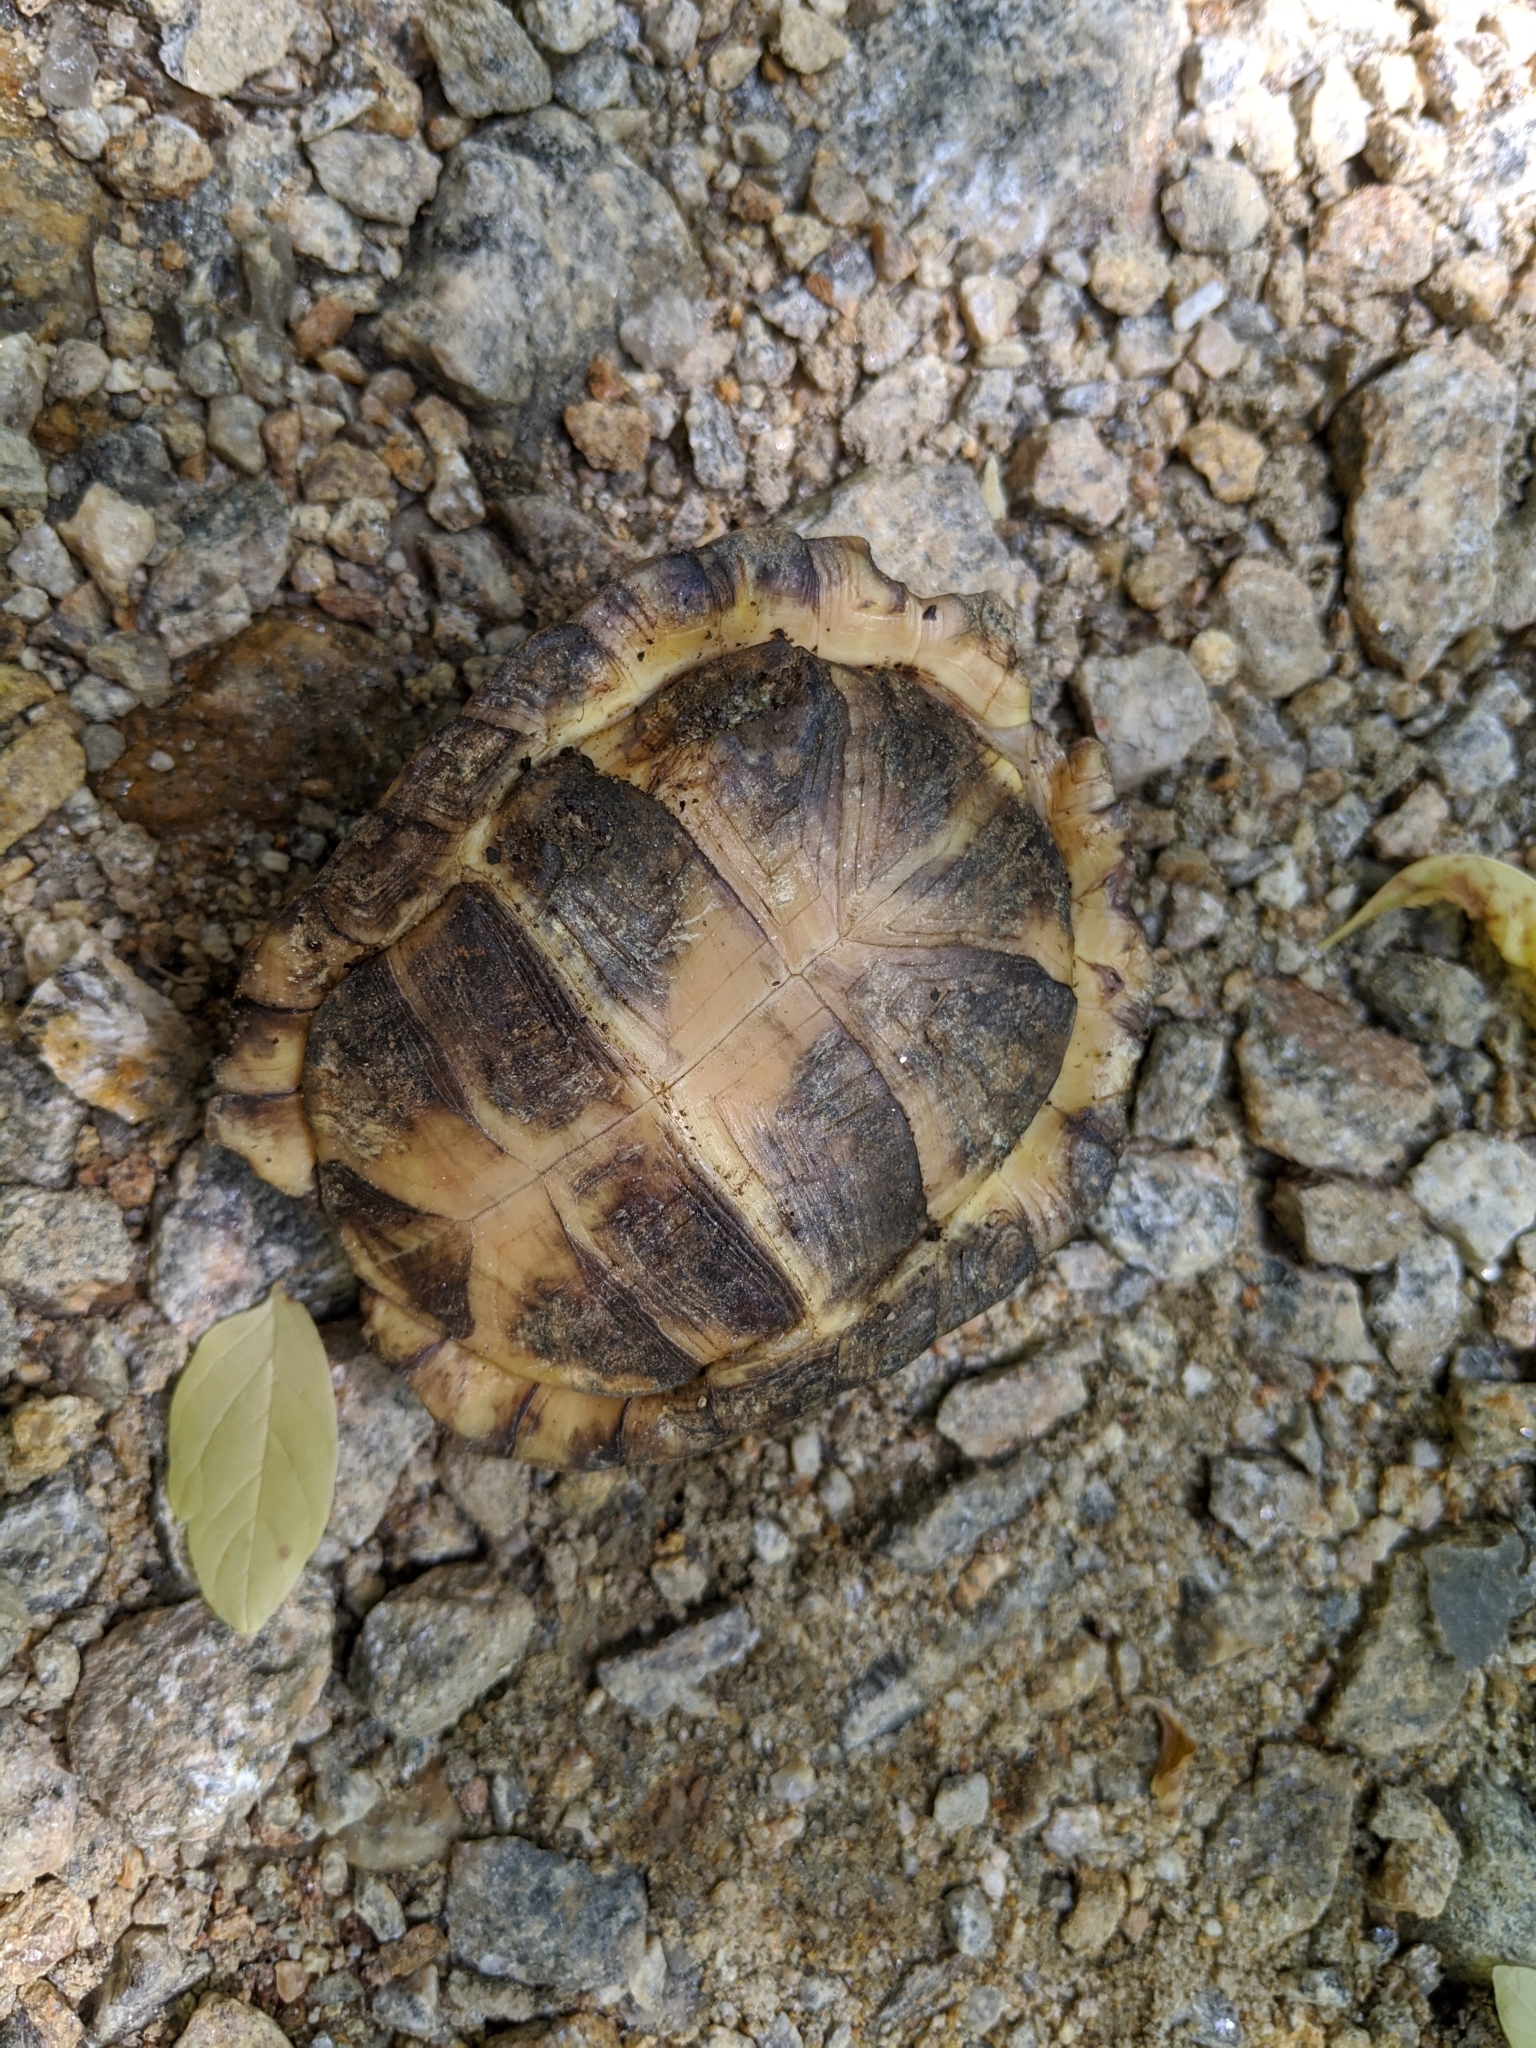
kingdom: Animalia
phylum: Chordata
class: Testudines
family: Emydidae
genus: Terrapene
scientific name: Terrapene carolina
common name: Common box turtle
